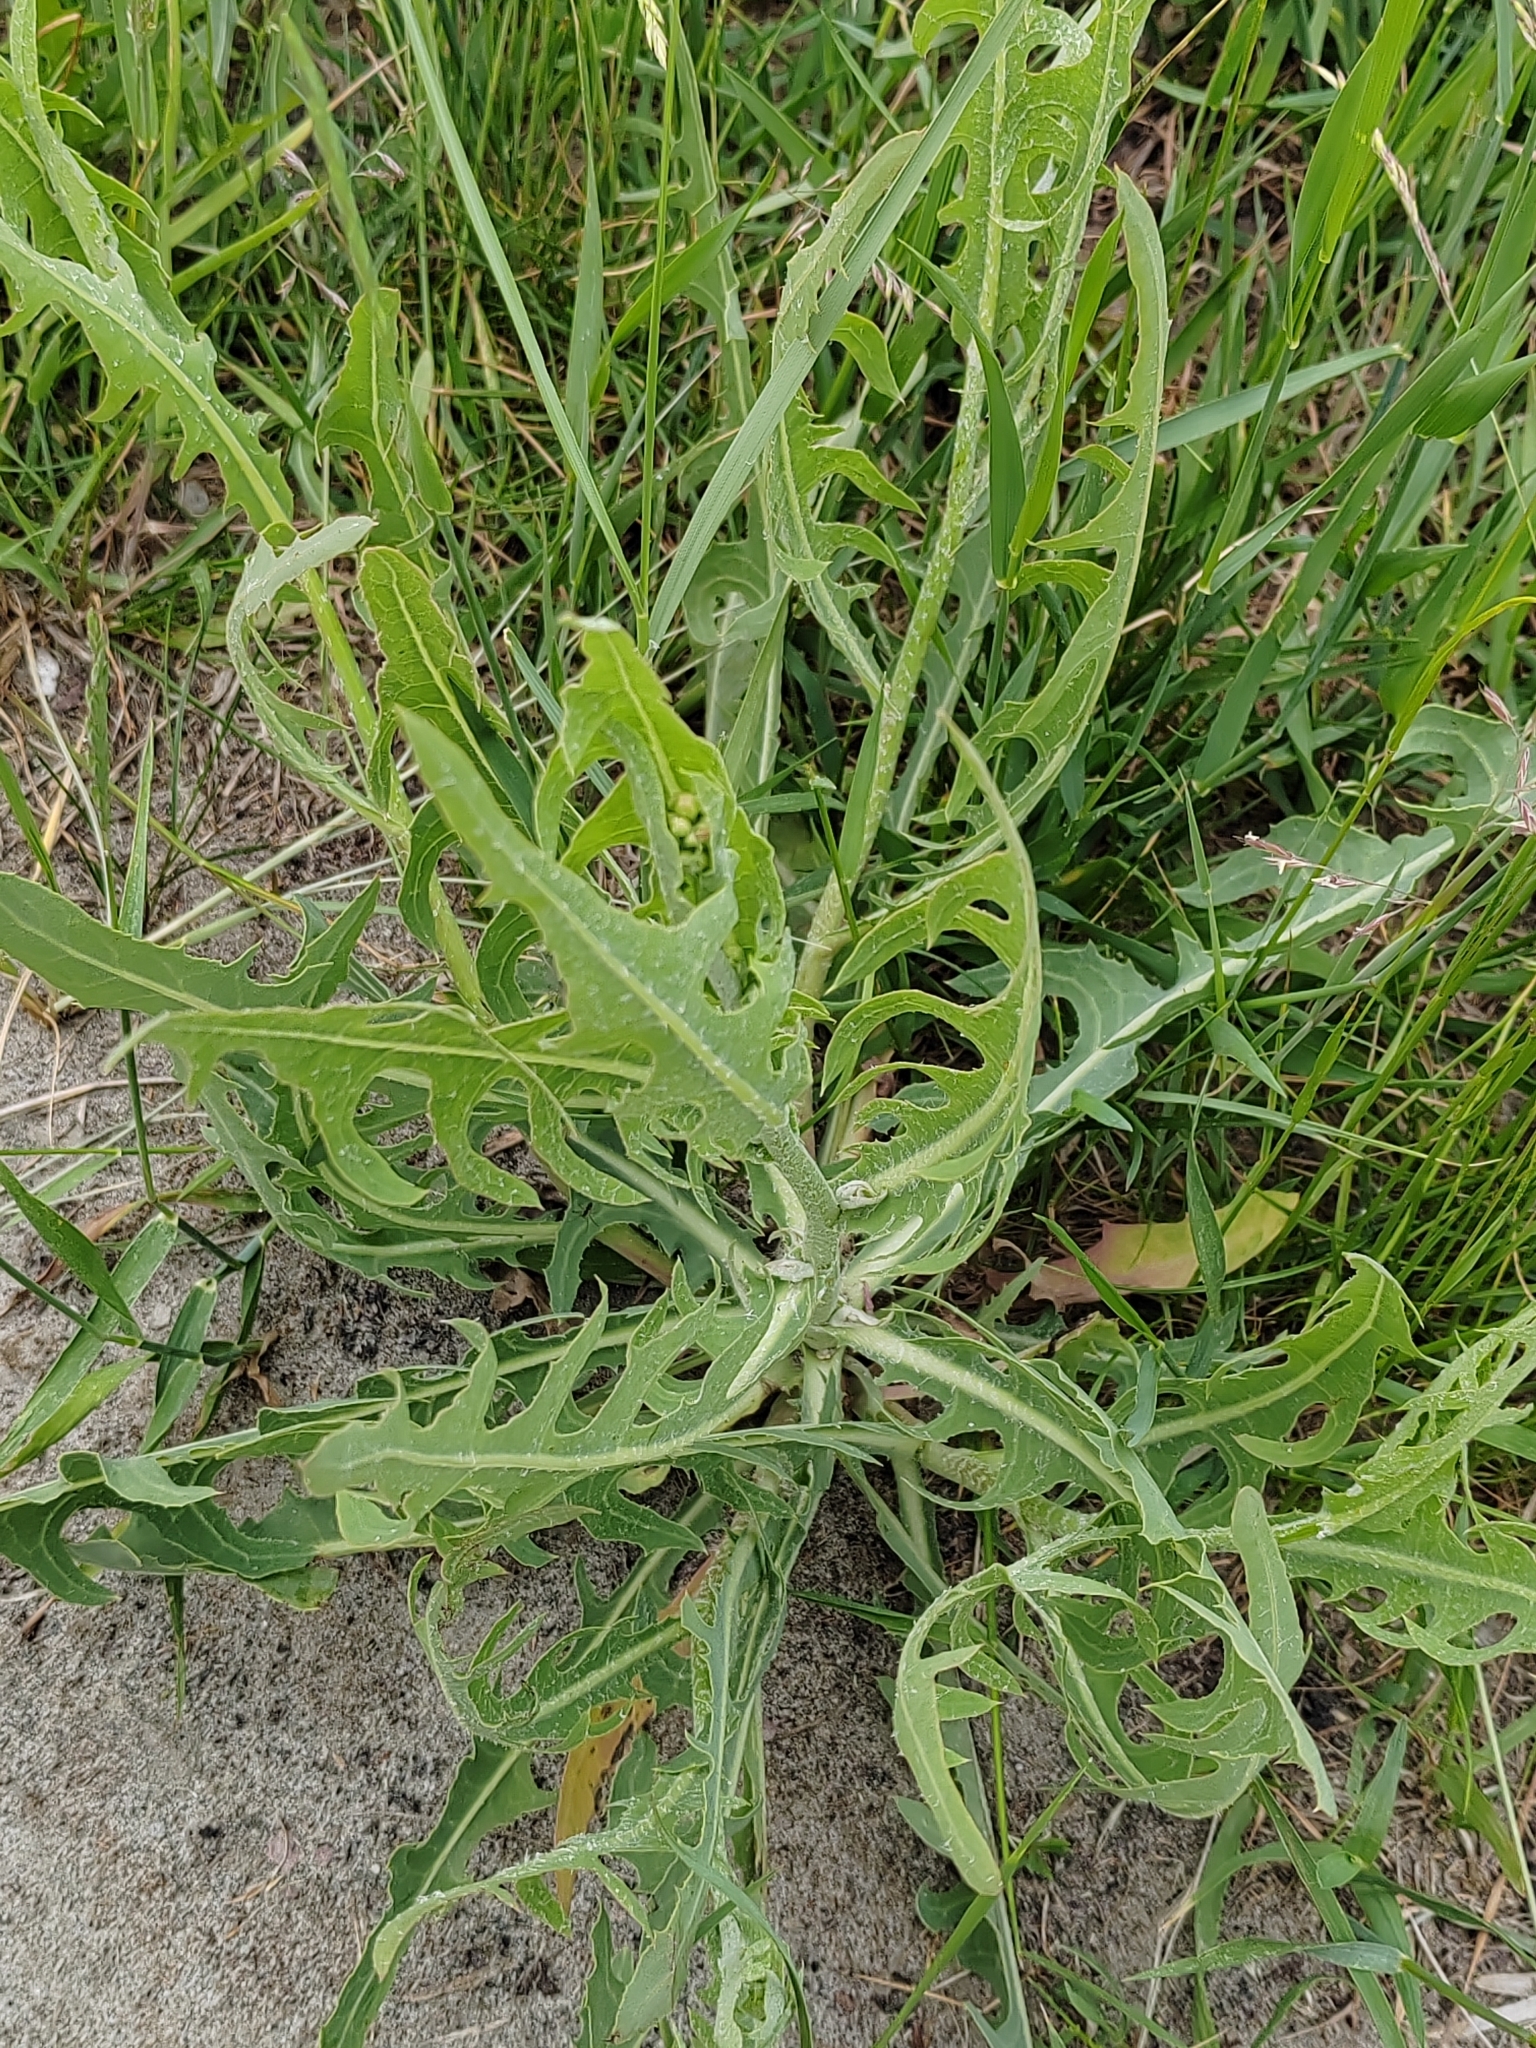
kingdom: Plantae
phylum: Tracheophyta
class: Magnoliopsida
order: Asterales
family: Asteraceae
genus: Lactuca
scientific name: Lactuca tatarica
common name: Blue lettuce
